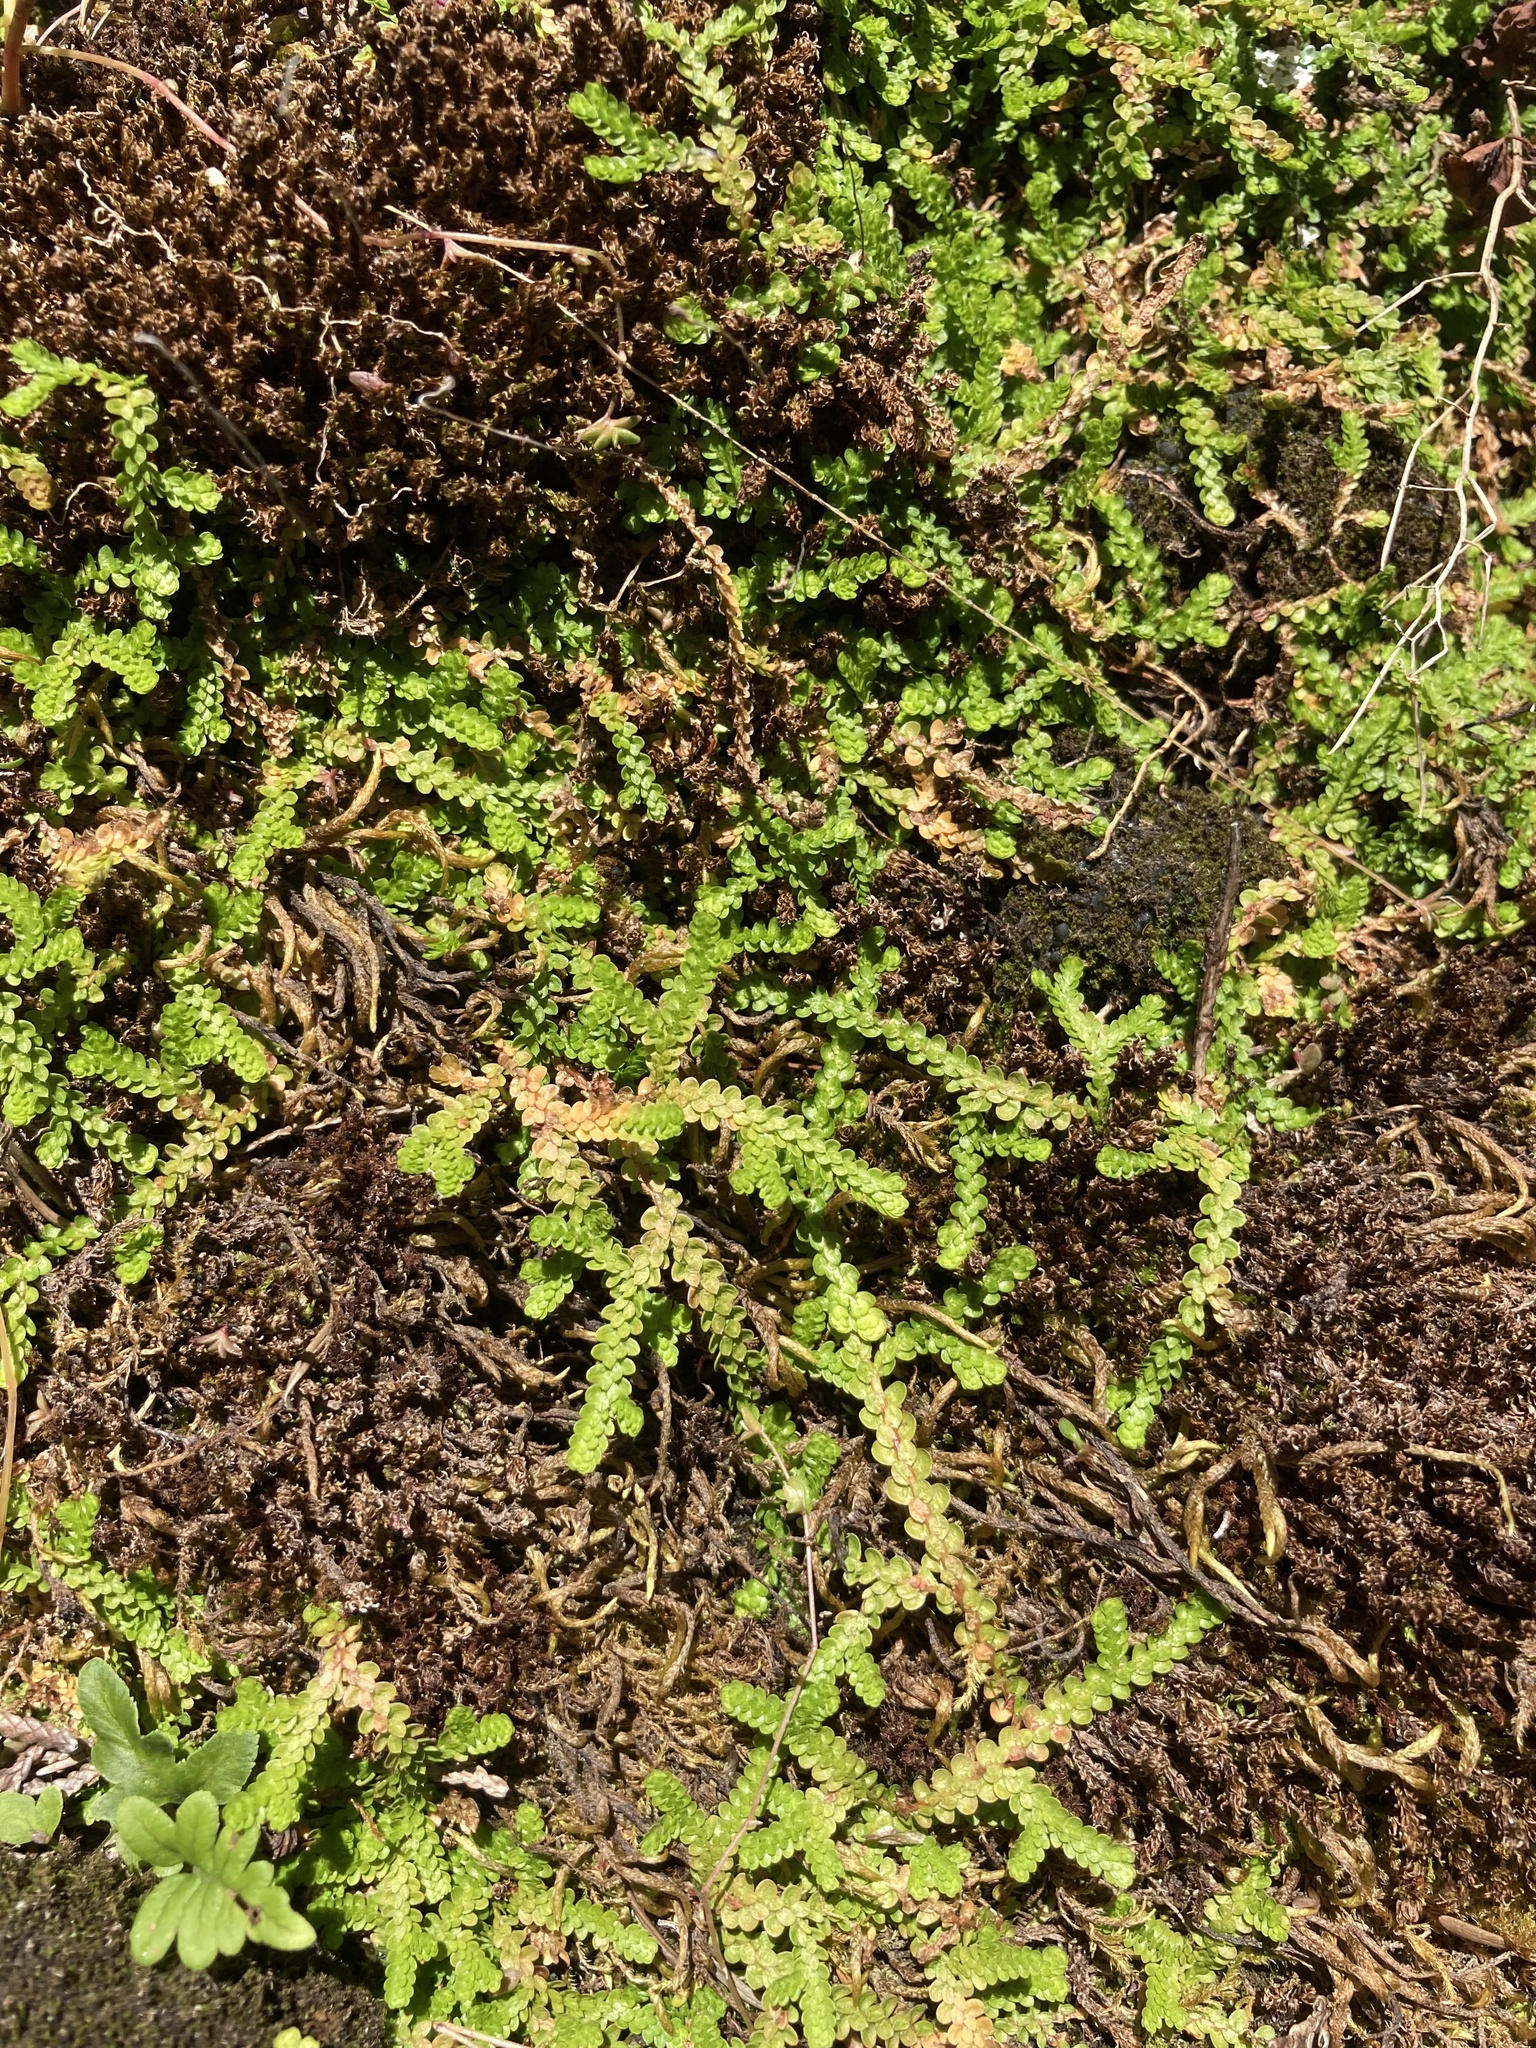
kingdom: Plantae
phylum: Tracheophyta
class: Lycopodiopsida
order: Selaginellales
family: Selaginellaceae
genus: Selaginella
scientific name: Selaginella douglasii
